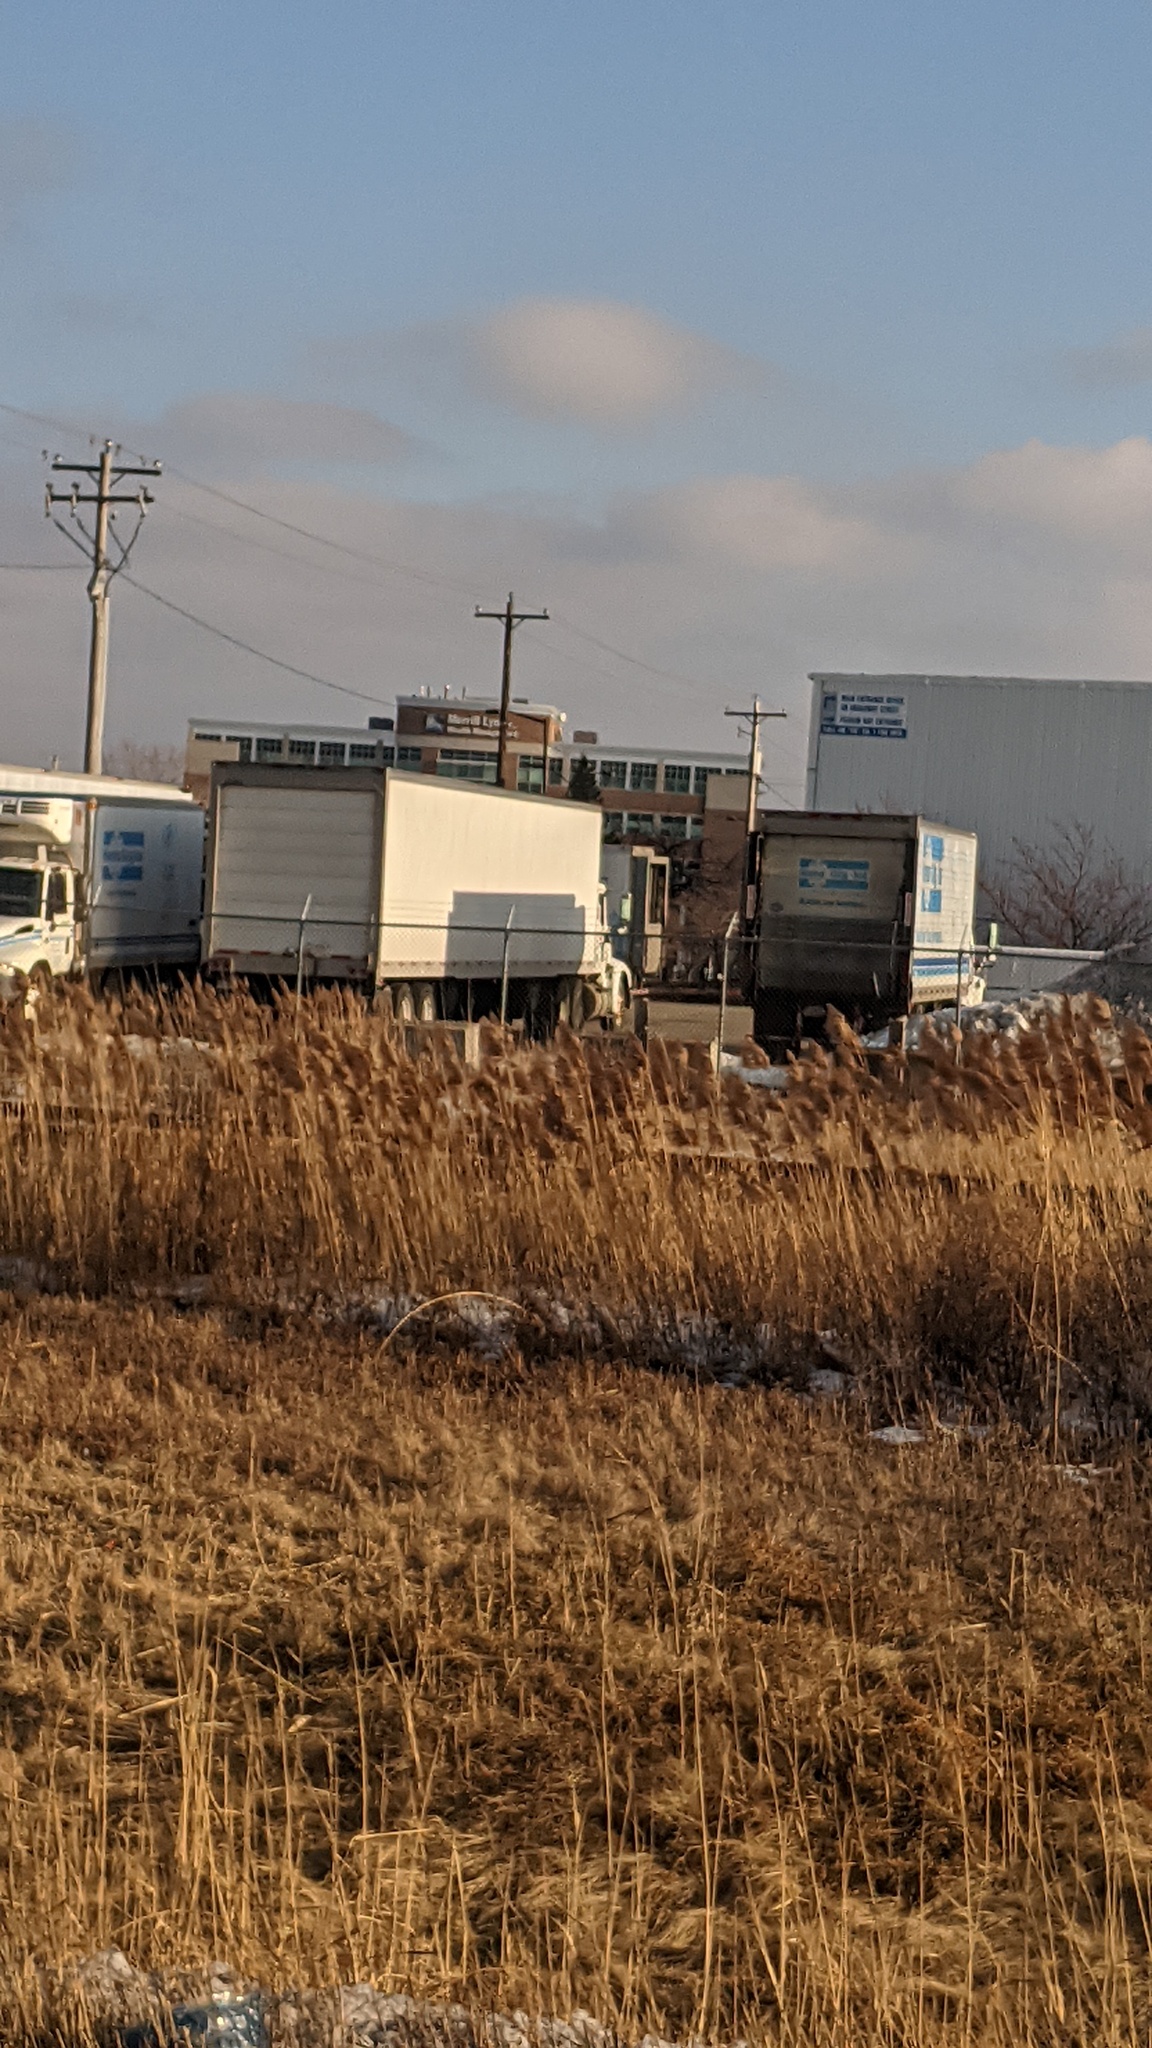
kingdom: Plantae
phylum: Tracheophyta
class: Liliopsida
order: Poales
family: Poaceae
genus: Phragmites
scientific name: Phragmites australis
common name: Common reed
